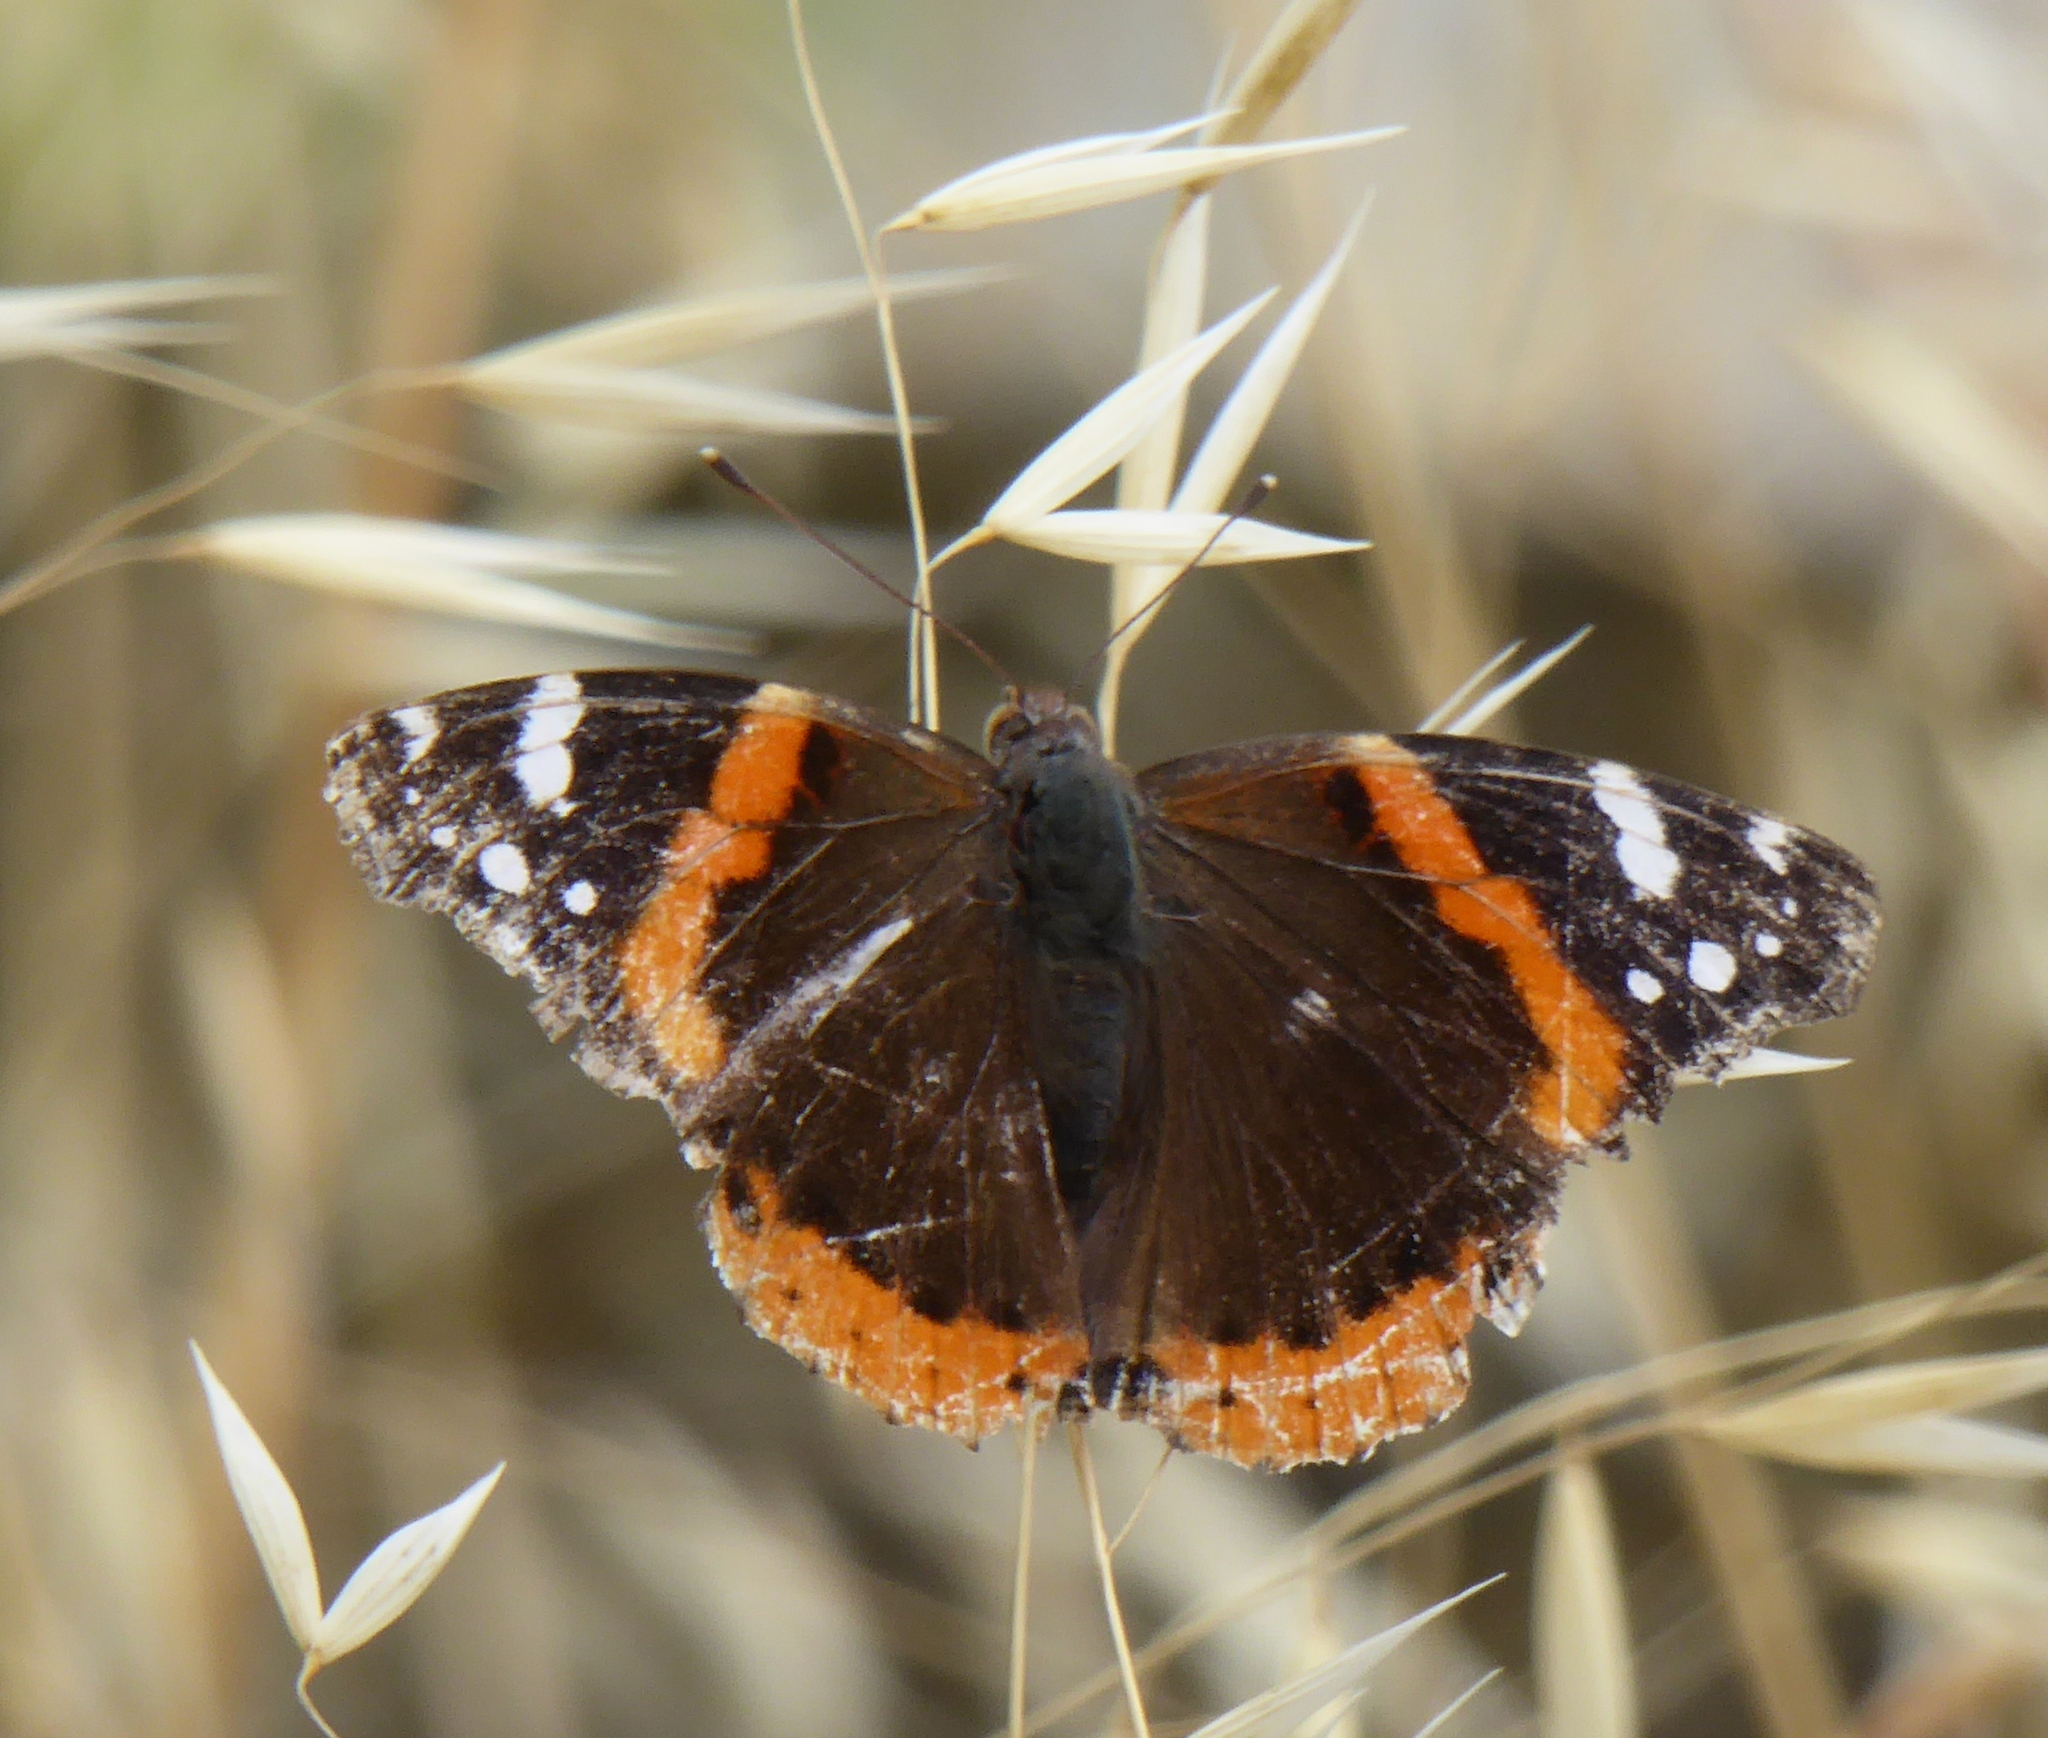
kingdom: Animalia
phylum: Arthropoda
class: Insecta
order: Lepidoptera
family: Nymphalidae
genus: Vanessa
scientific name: Vanessa atalanta
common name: Red admiral
